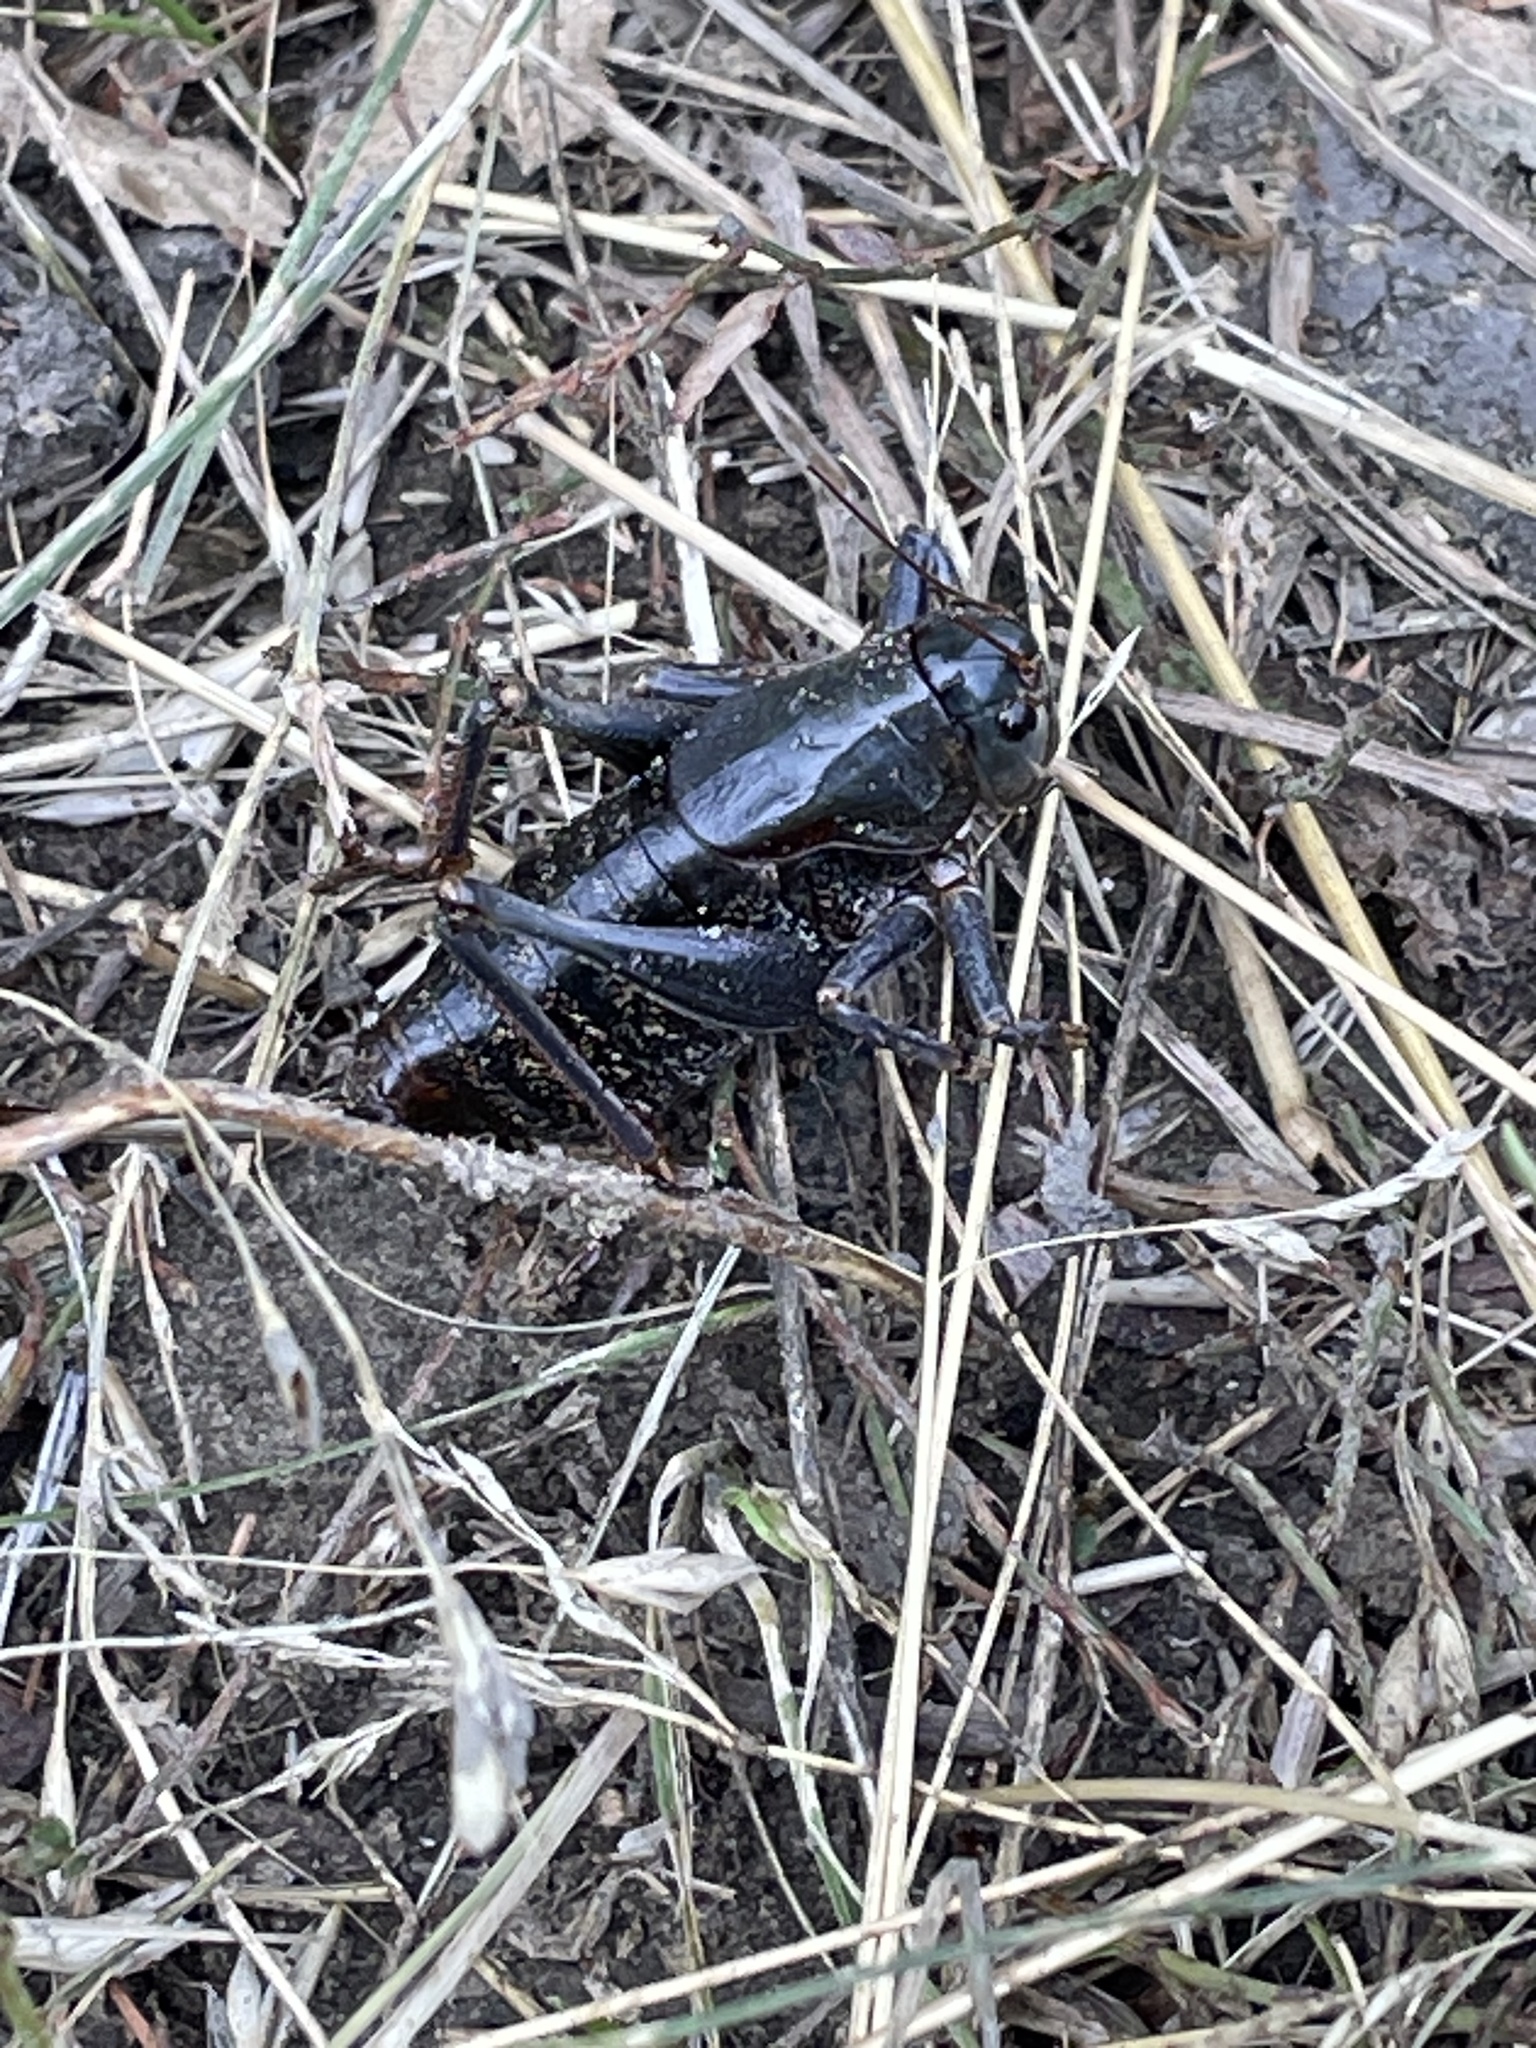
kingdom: Animalia
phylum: Arthropoda
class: Insecta
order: Orthoptera
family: Tettigoniidae
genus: Anabrus
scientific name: Anabrus simplex
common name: Mormon cricket
